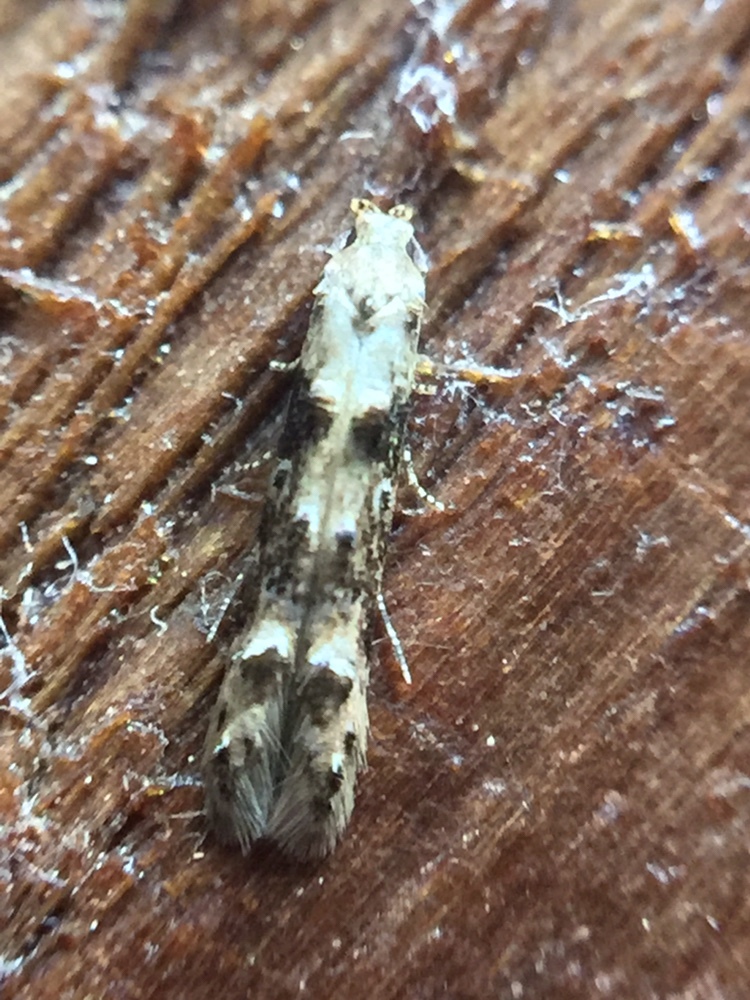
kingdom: Animalia
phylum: Arthropoda
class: Insecta
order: Lepidoptera
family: Elachistidae
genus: Microcolona
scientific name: Microcolona limodes
